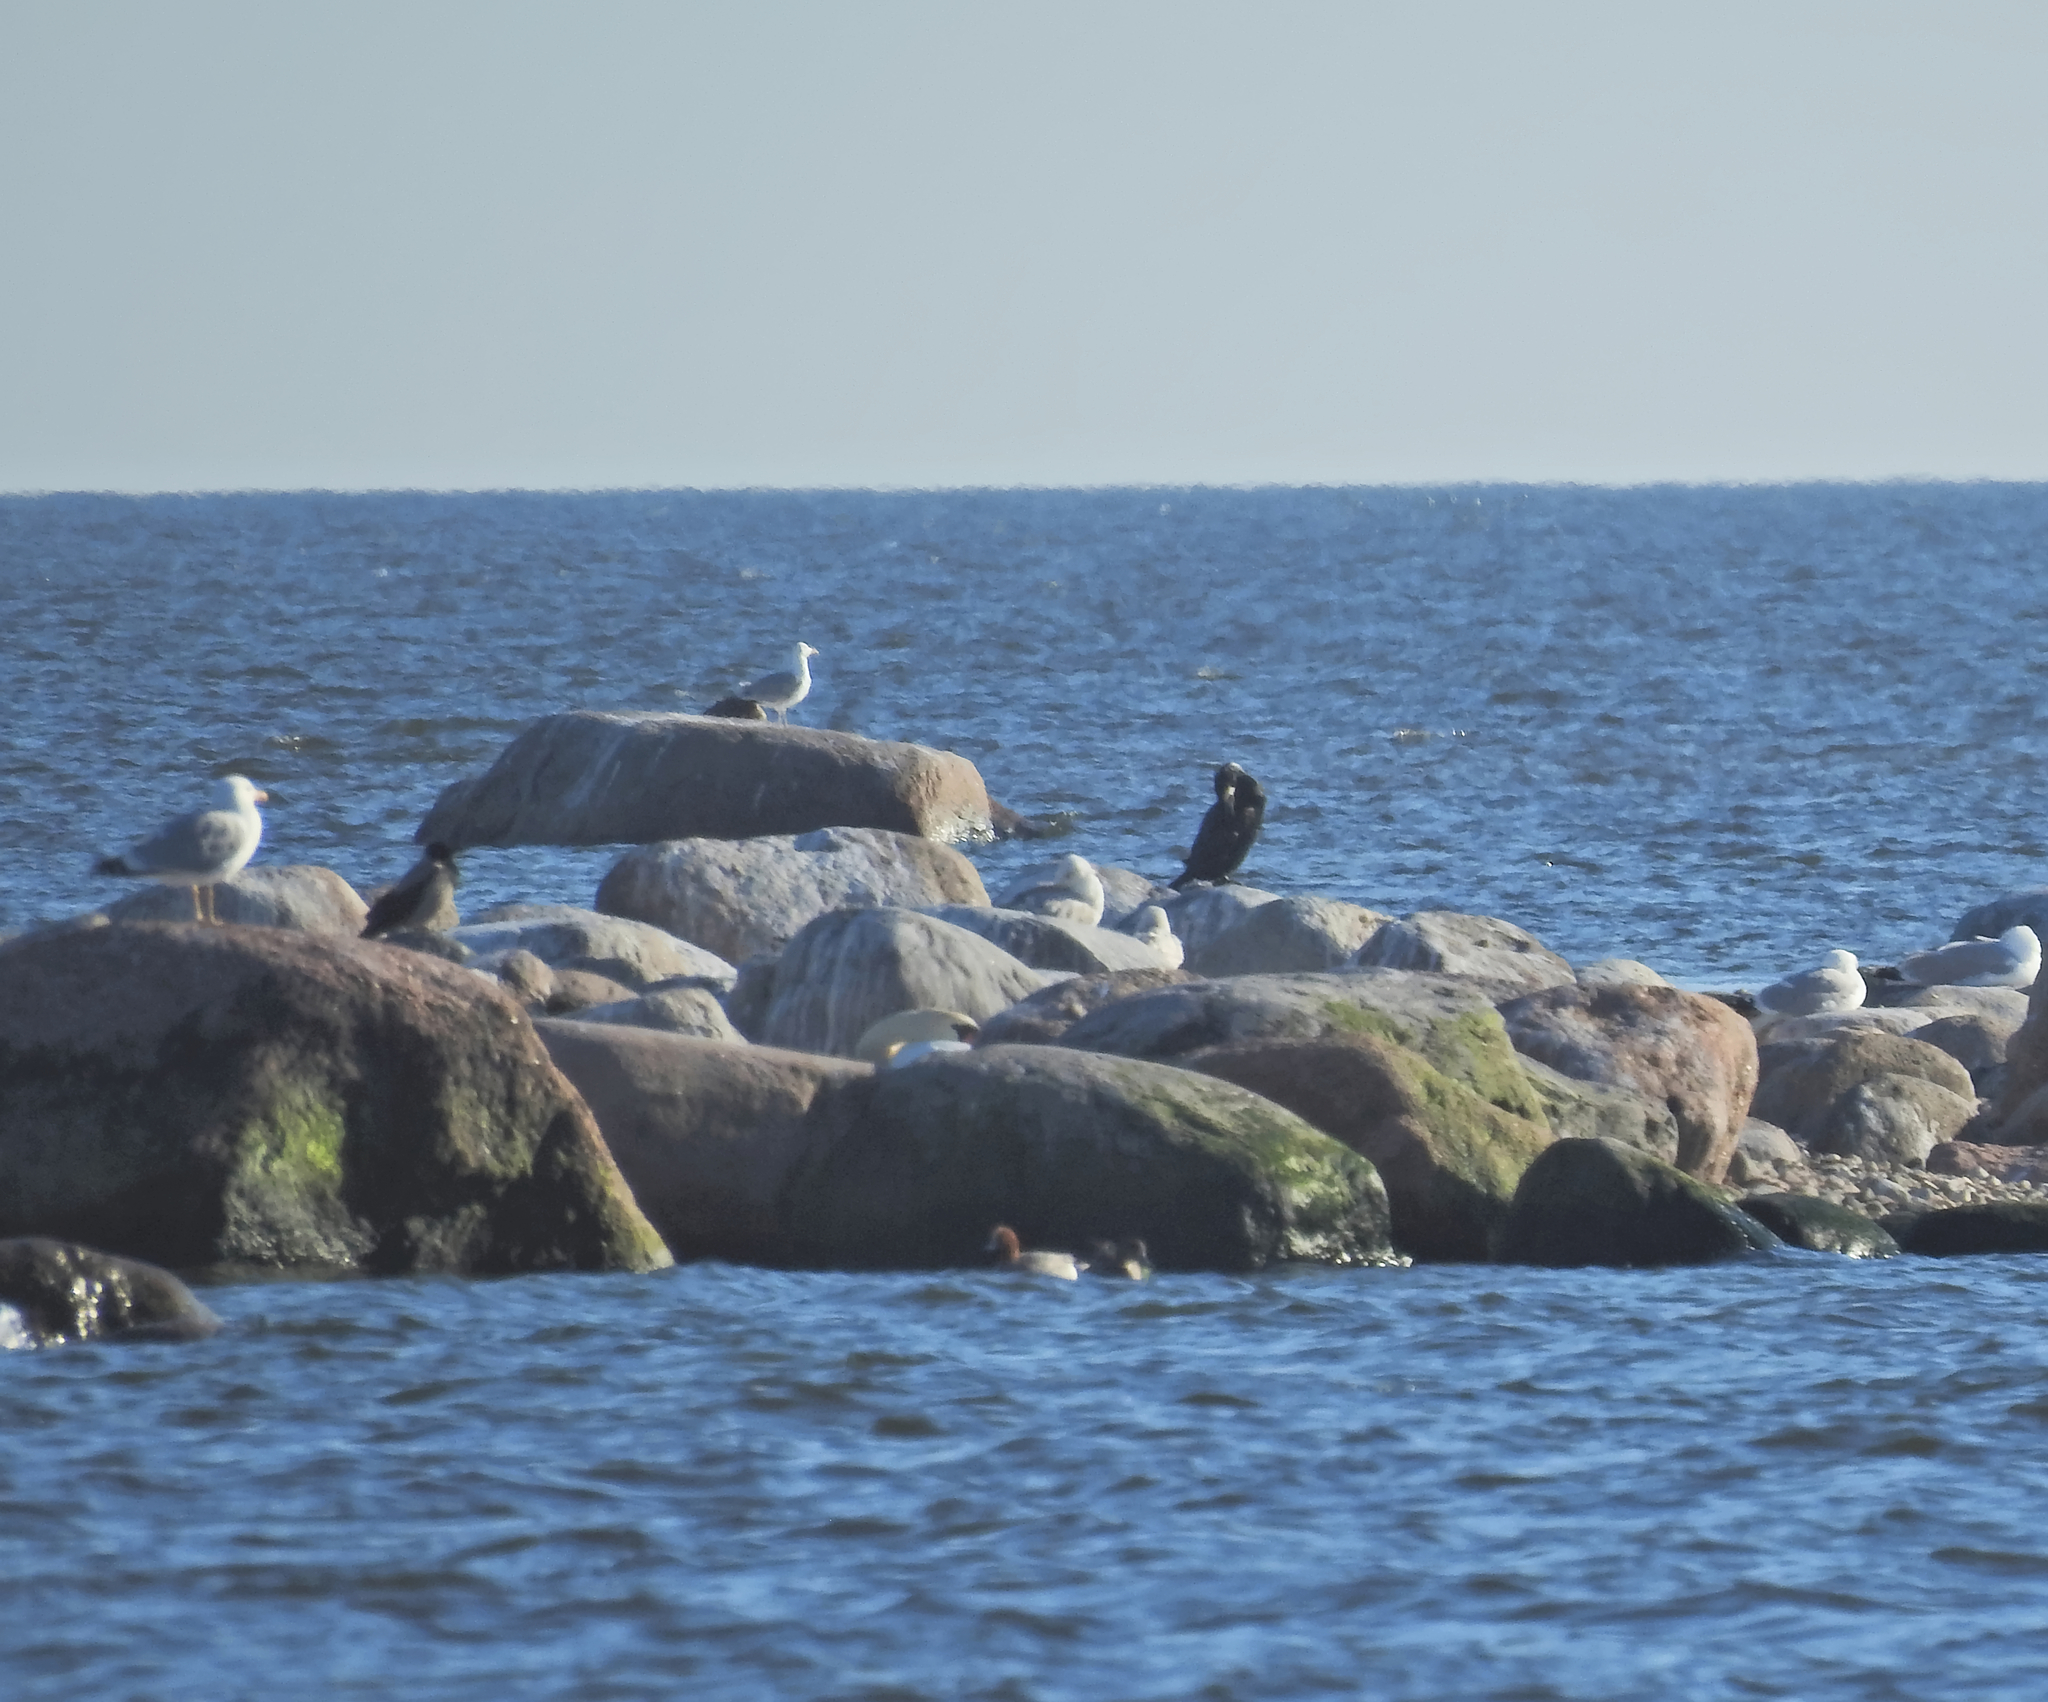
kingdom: Animalia
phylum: Chordata
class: Aves
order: Anseriformes
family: Anatidae
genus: Mareca
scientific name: Mareca penelope
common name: Eurasian wigeon
